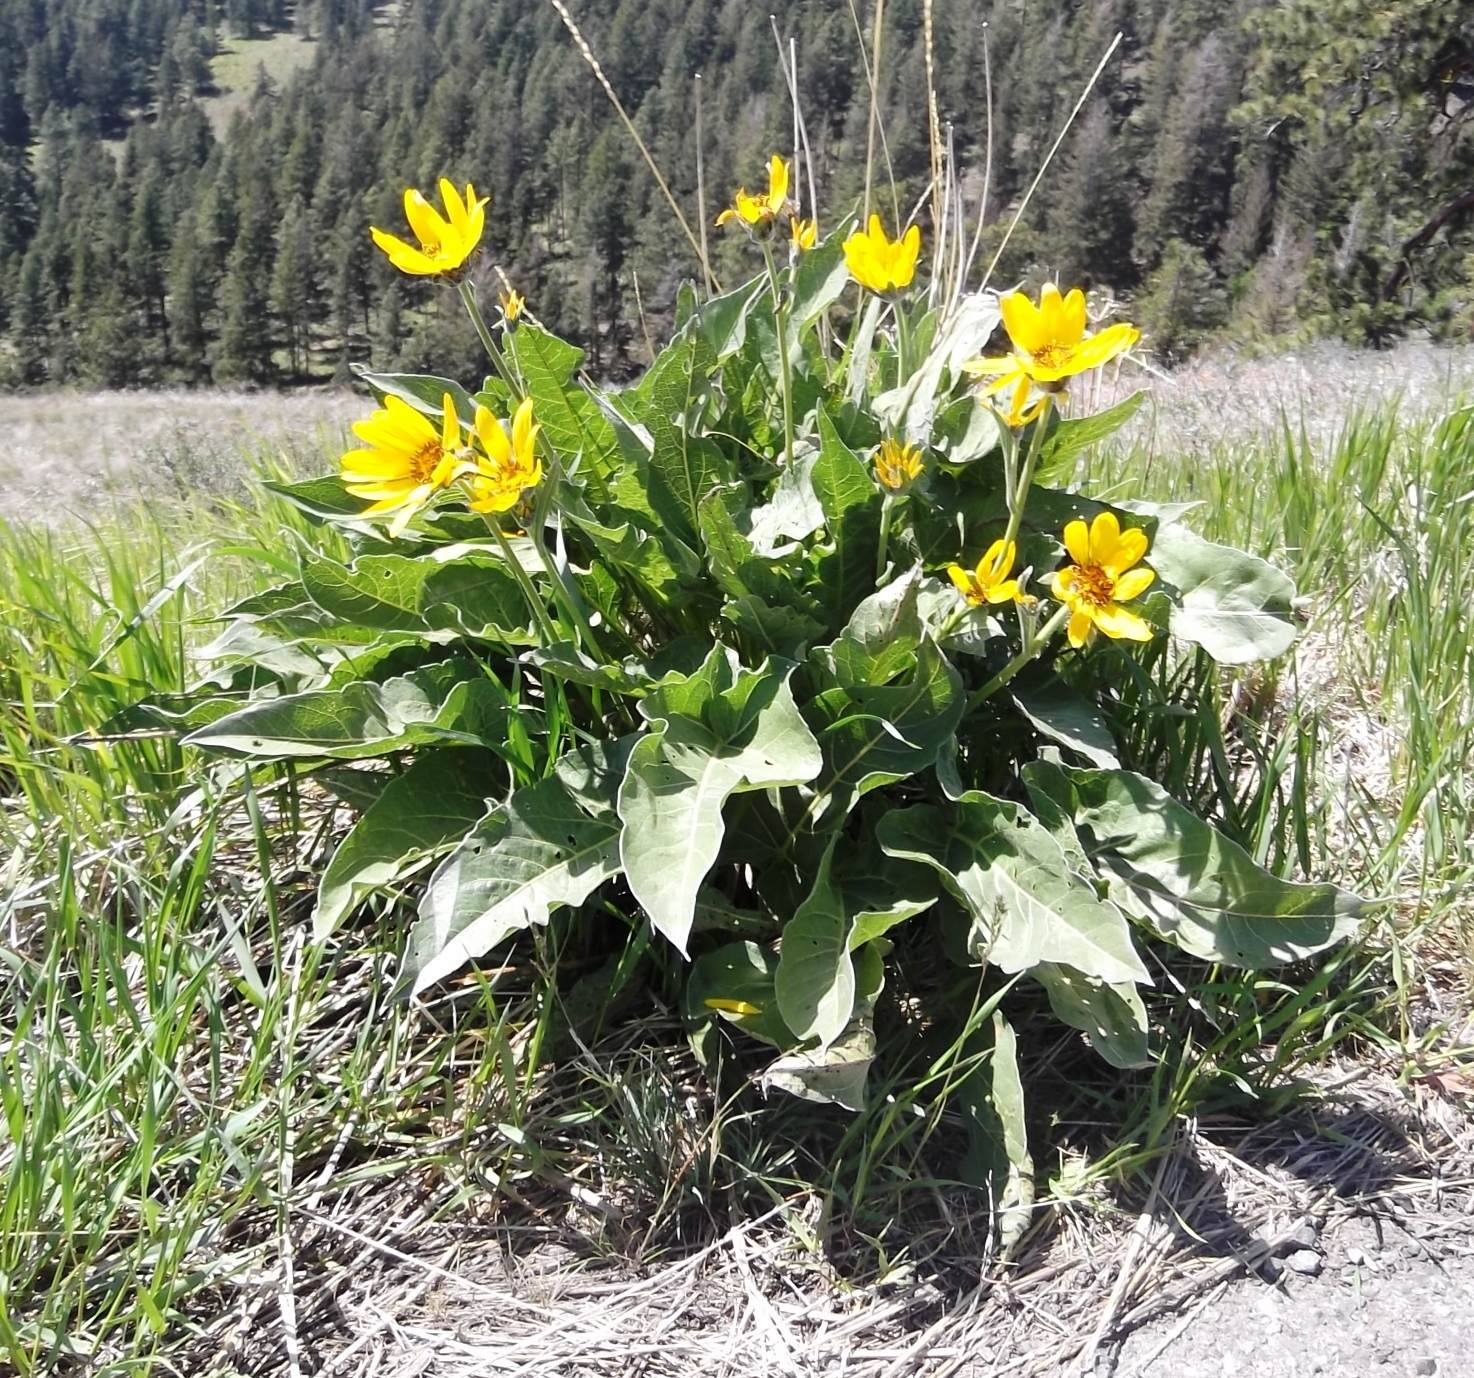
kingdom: Plantae
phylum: Tracheophyta
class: Magnoliopsida
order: Asterales
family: Asteraceae
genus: Wyethia
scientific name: Wyethia sagittata
